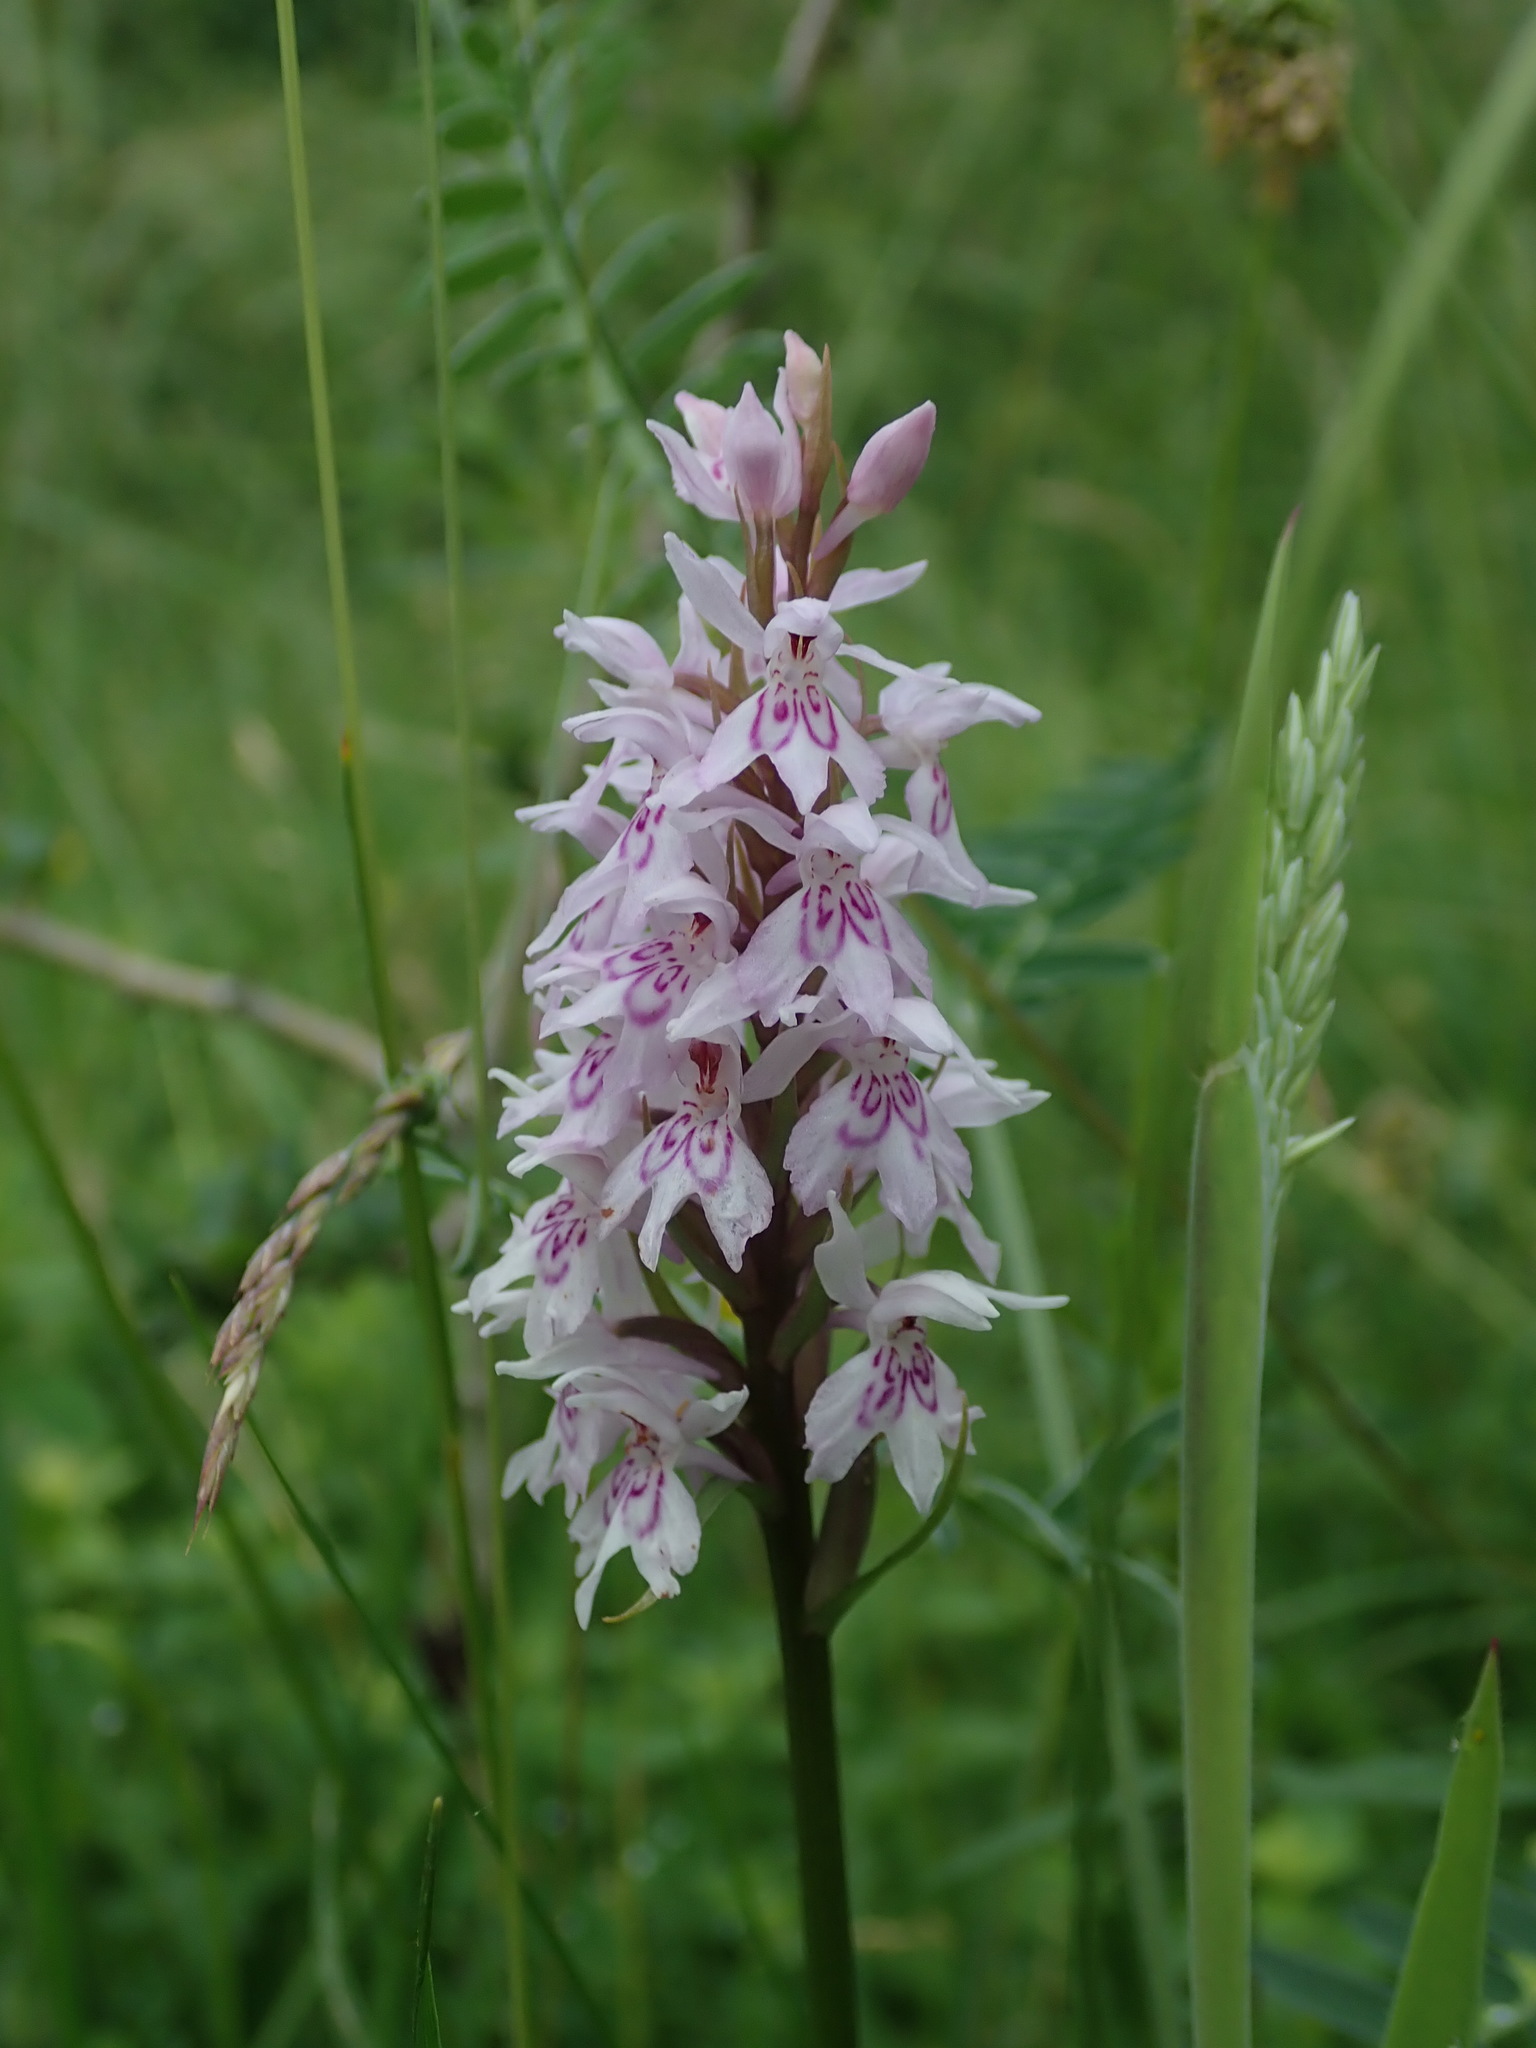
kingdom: Plantae
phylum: Tracheophyta
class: Liliopsida
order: Asparagales
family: Orchidaceae
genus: Dactylorhiza
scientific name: Dactylorhiza maculata
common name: Heath spotted-orchid
